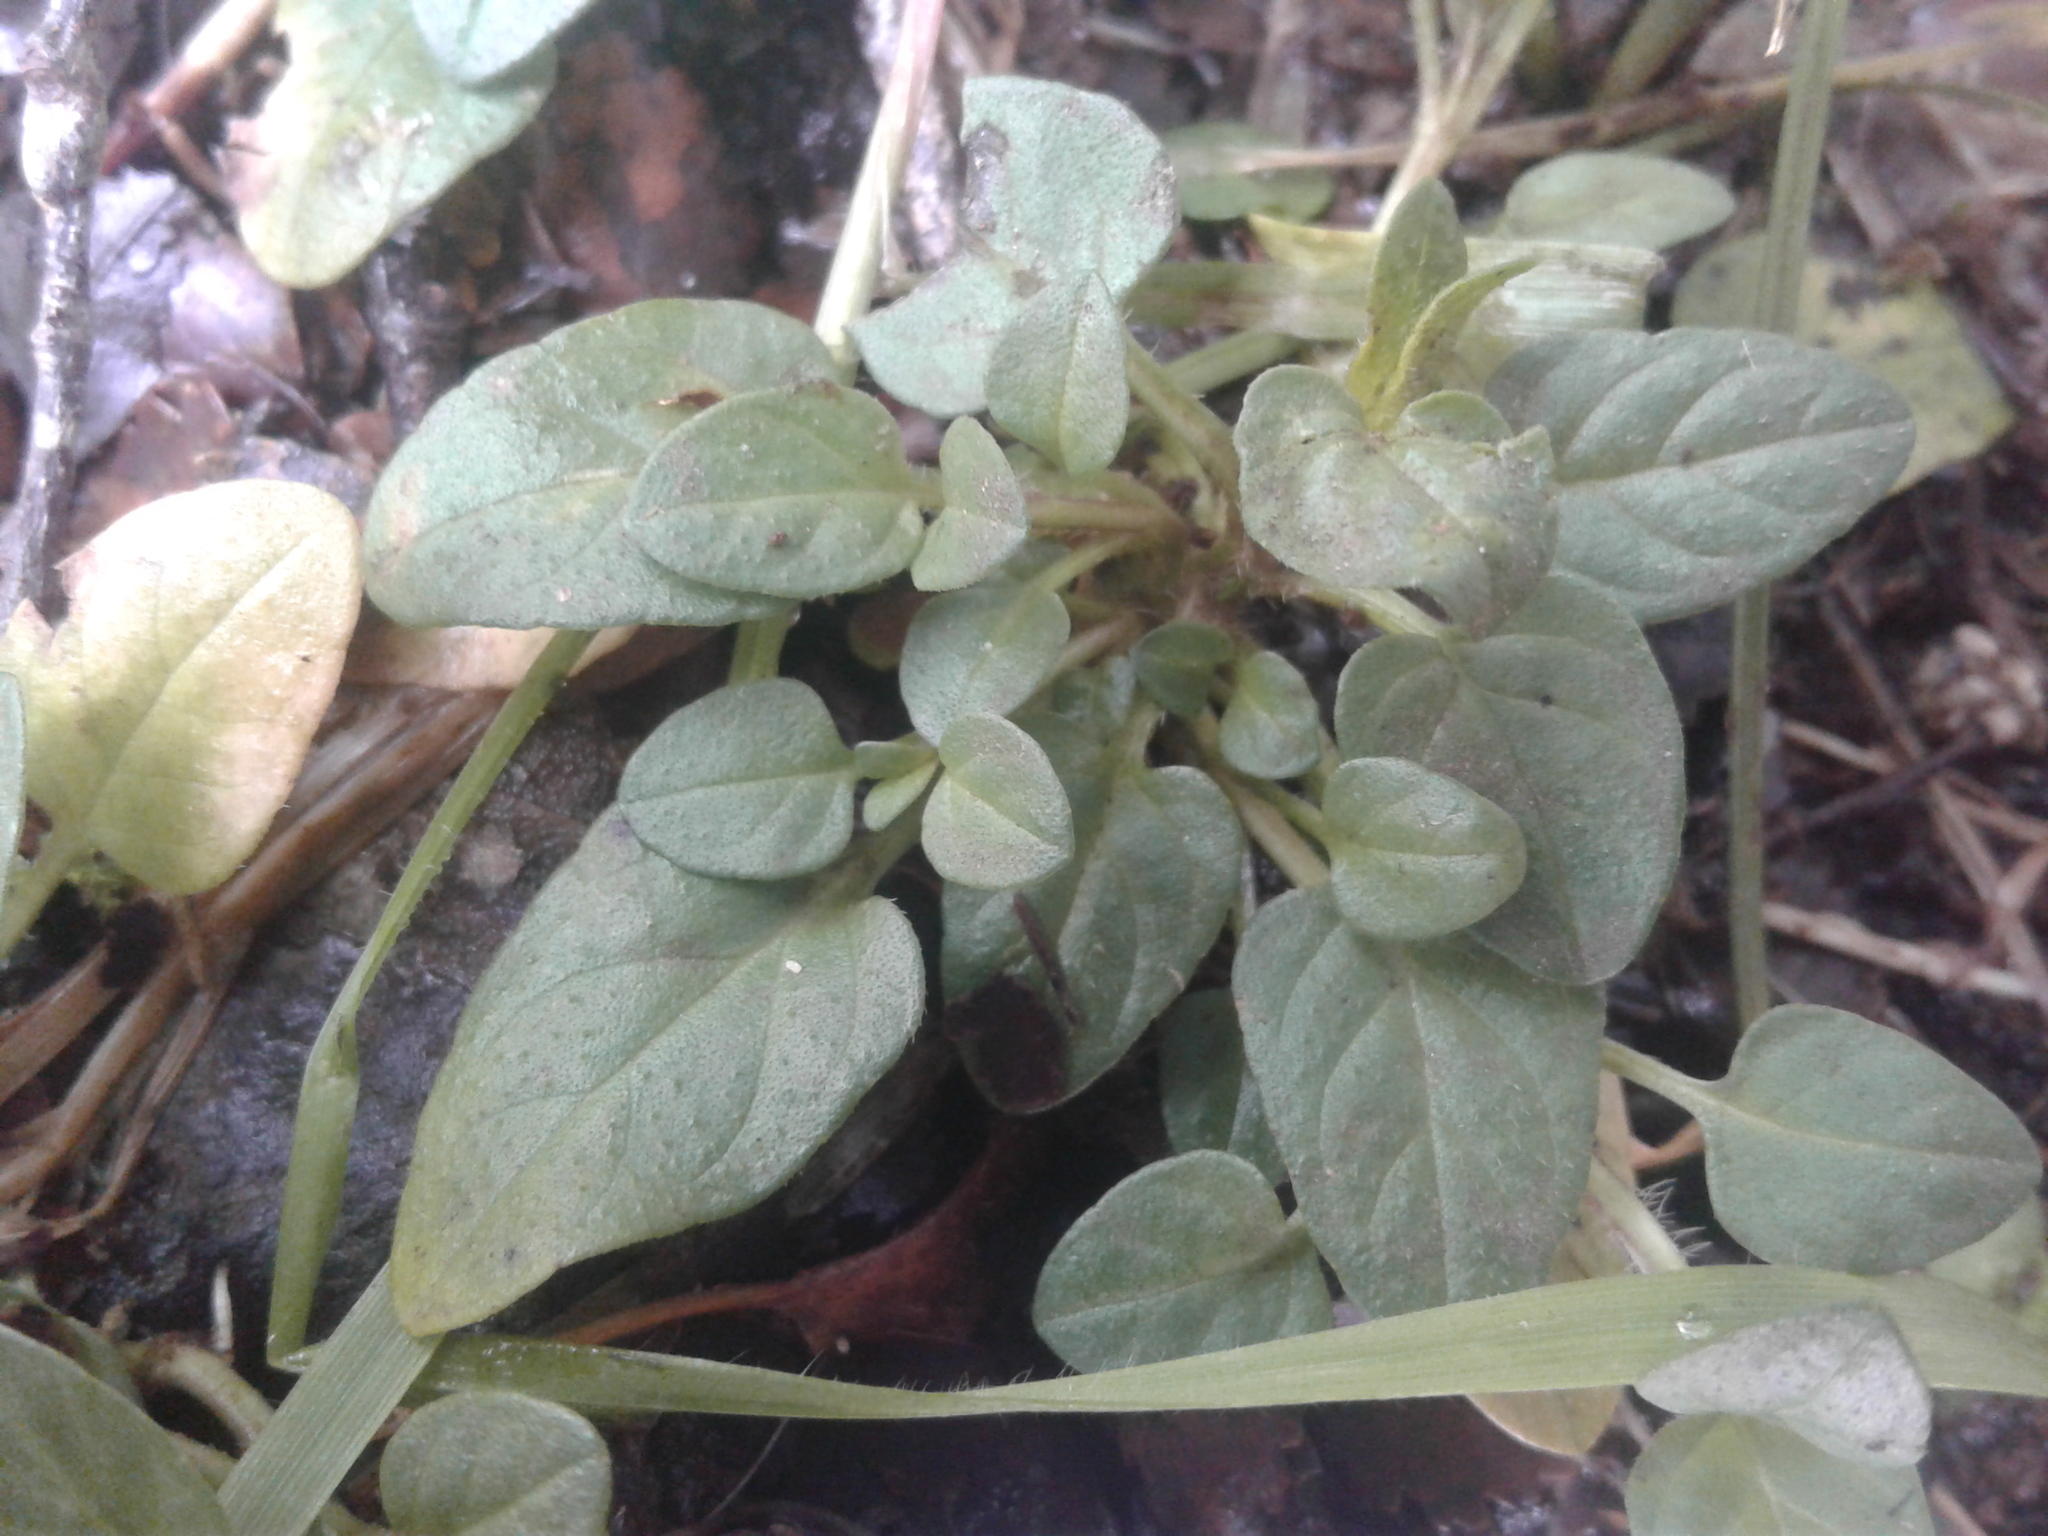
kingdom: Plantae
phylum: Tracheophyta
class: Magnoliopsida
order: Lamiales
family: Lamiaceae
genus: Prunella
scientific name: Prunella vulgaris
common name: Heal-all
